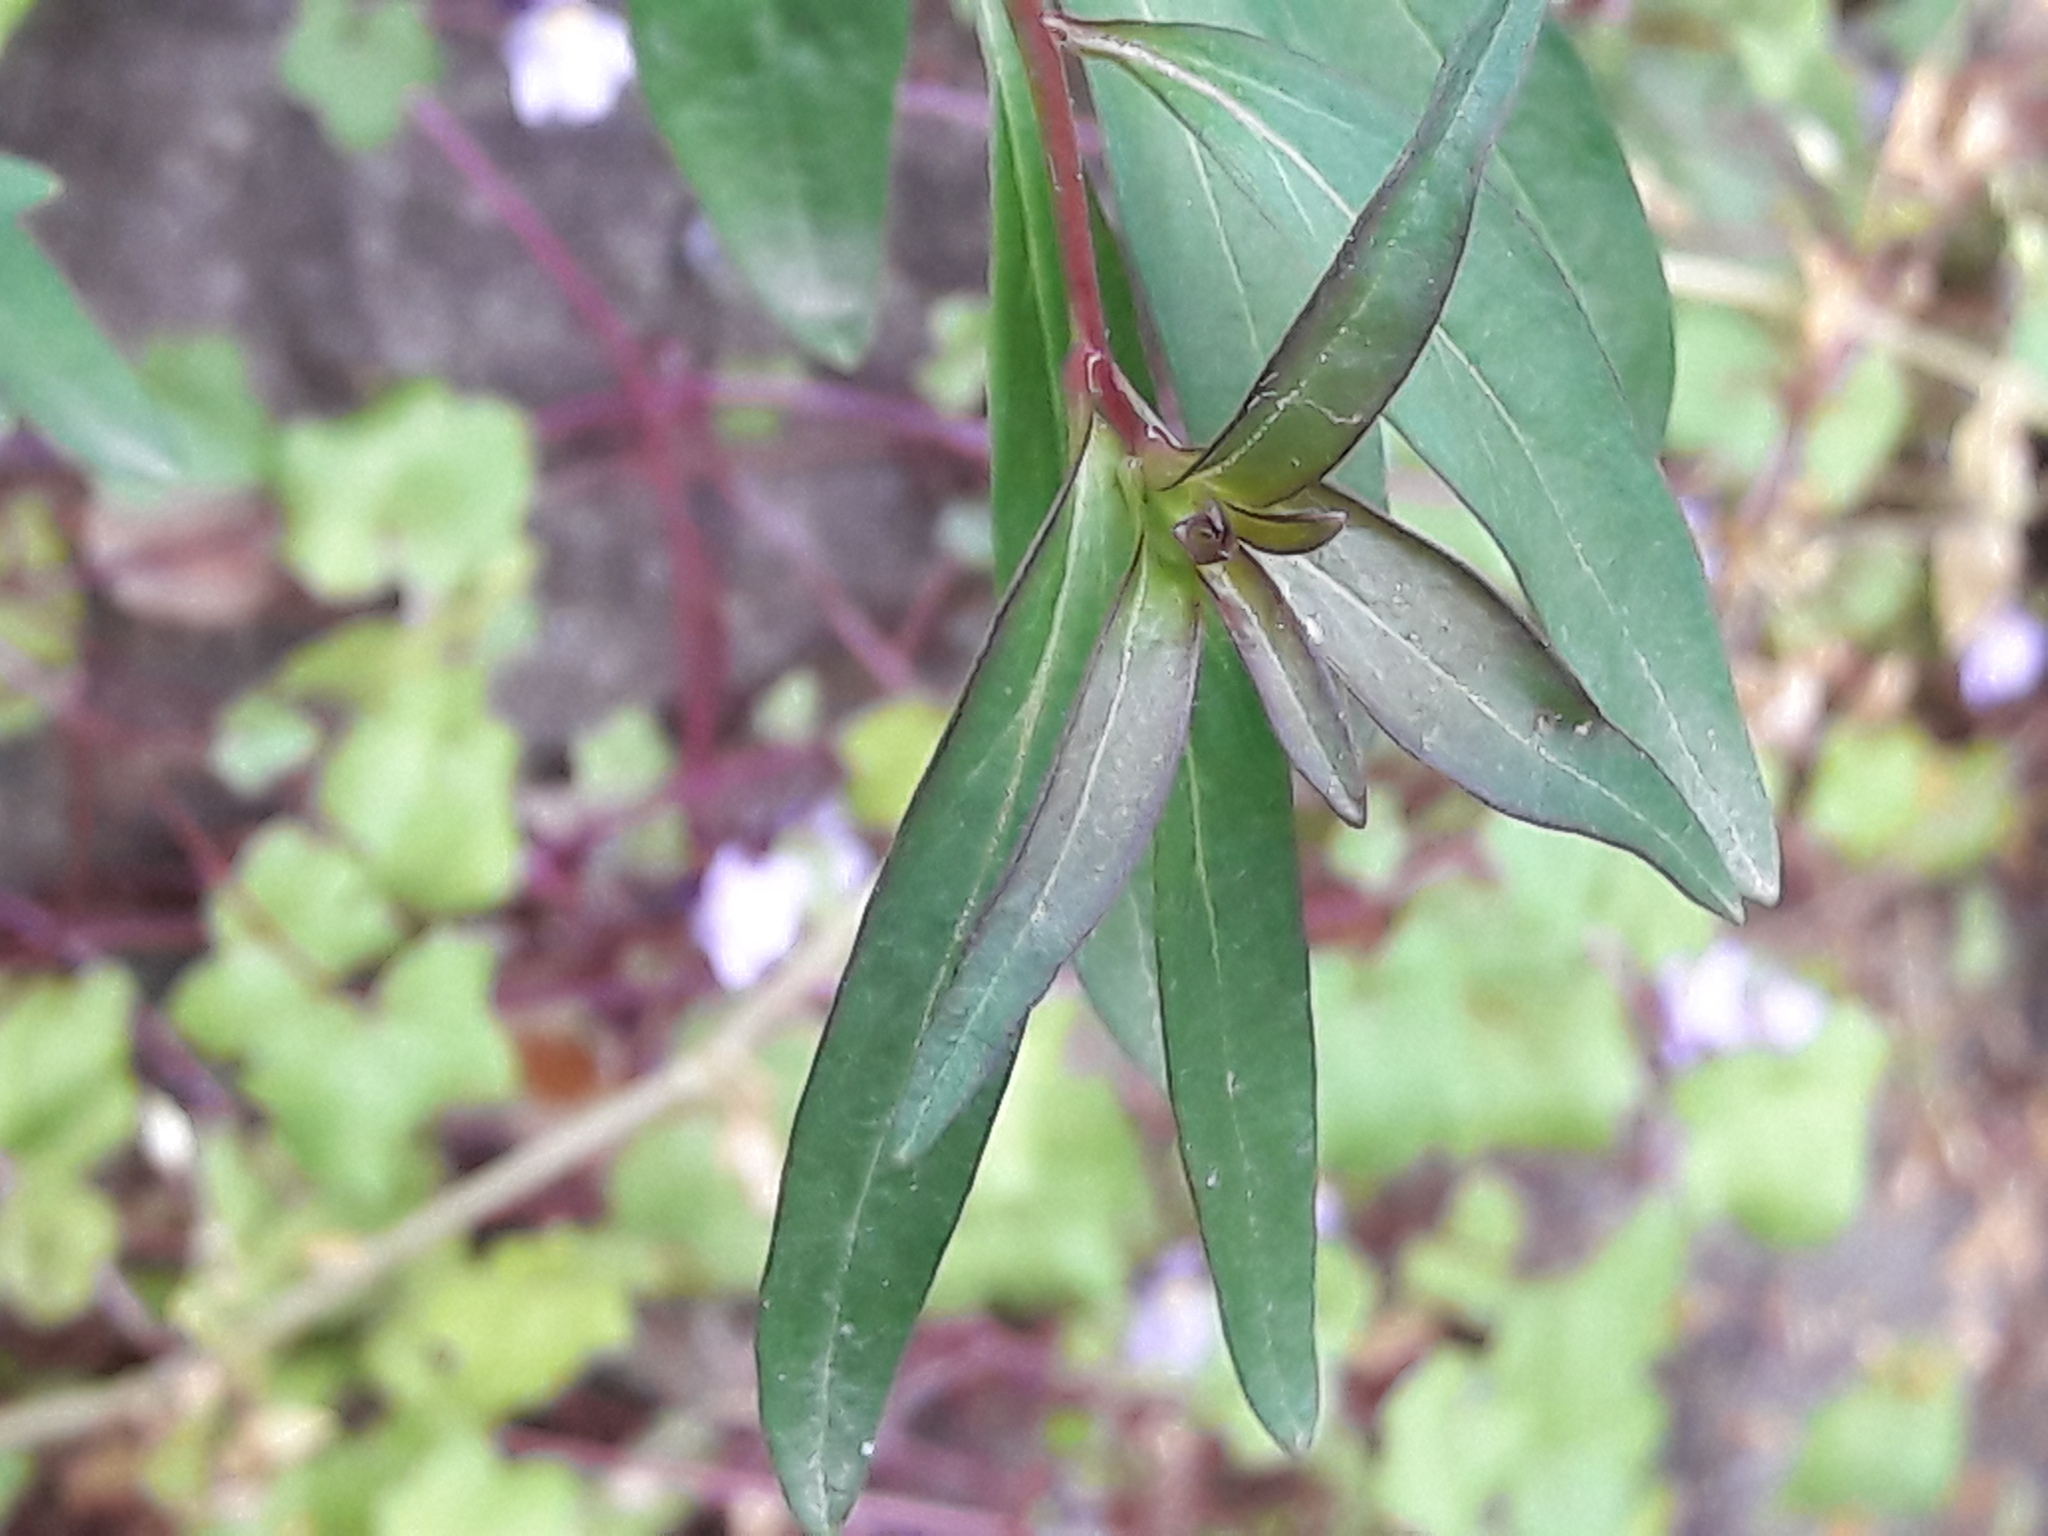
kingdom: Plantae
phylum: Tracheophyta
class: Magnoliopsida
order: Lamiales
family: Plantaginaceae
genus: Antirrhinum
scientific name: Antirrhinum majus
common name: Snapdragon
